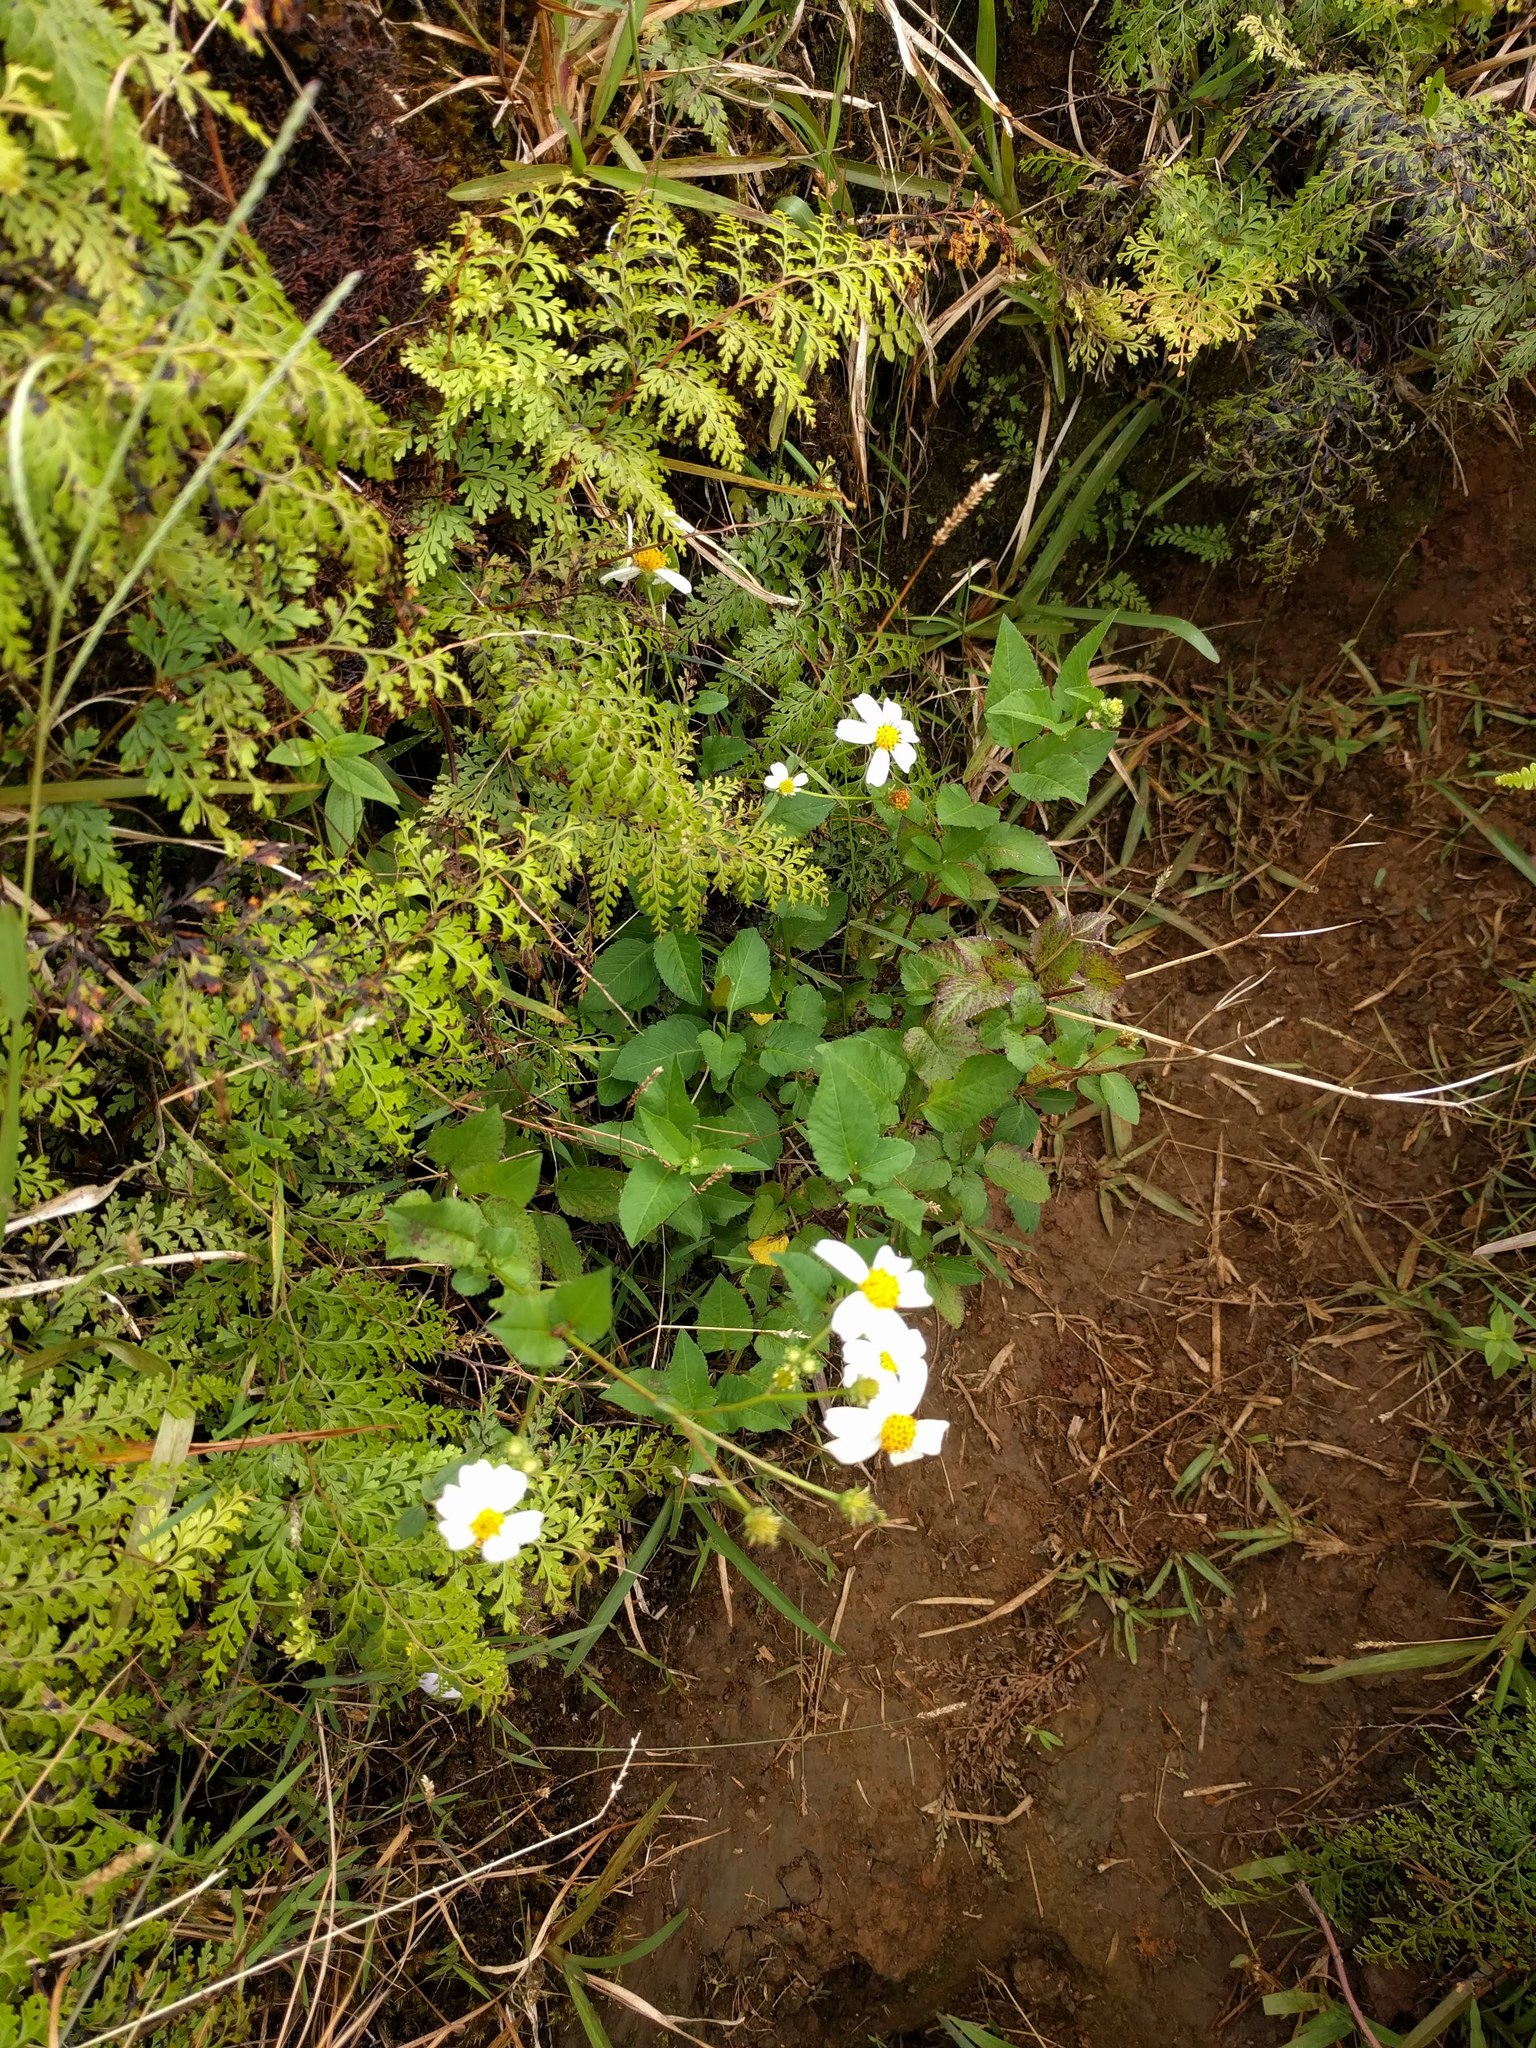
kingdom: Plantae
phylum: Tracheophyta
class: Magnoliopsida
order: Asterales
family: Asteraceae
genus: Bidens
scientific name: Bidens alba
